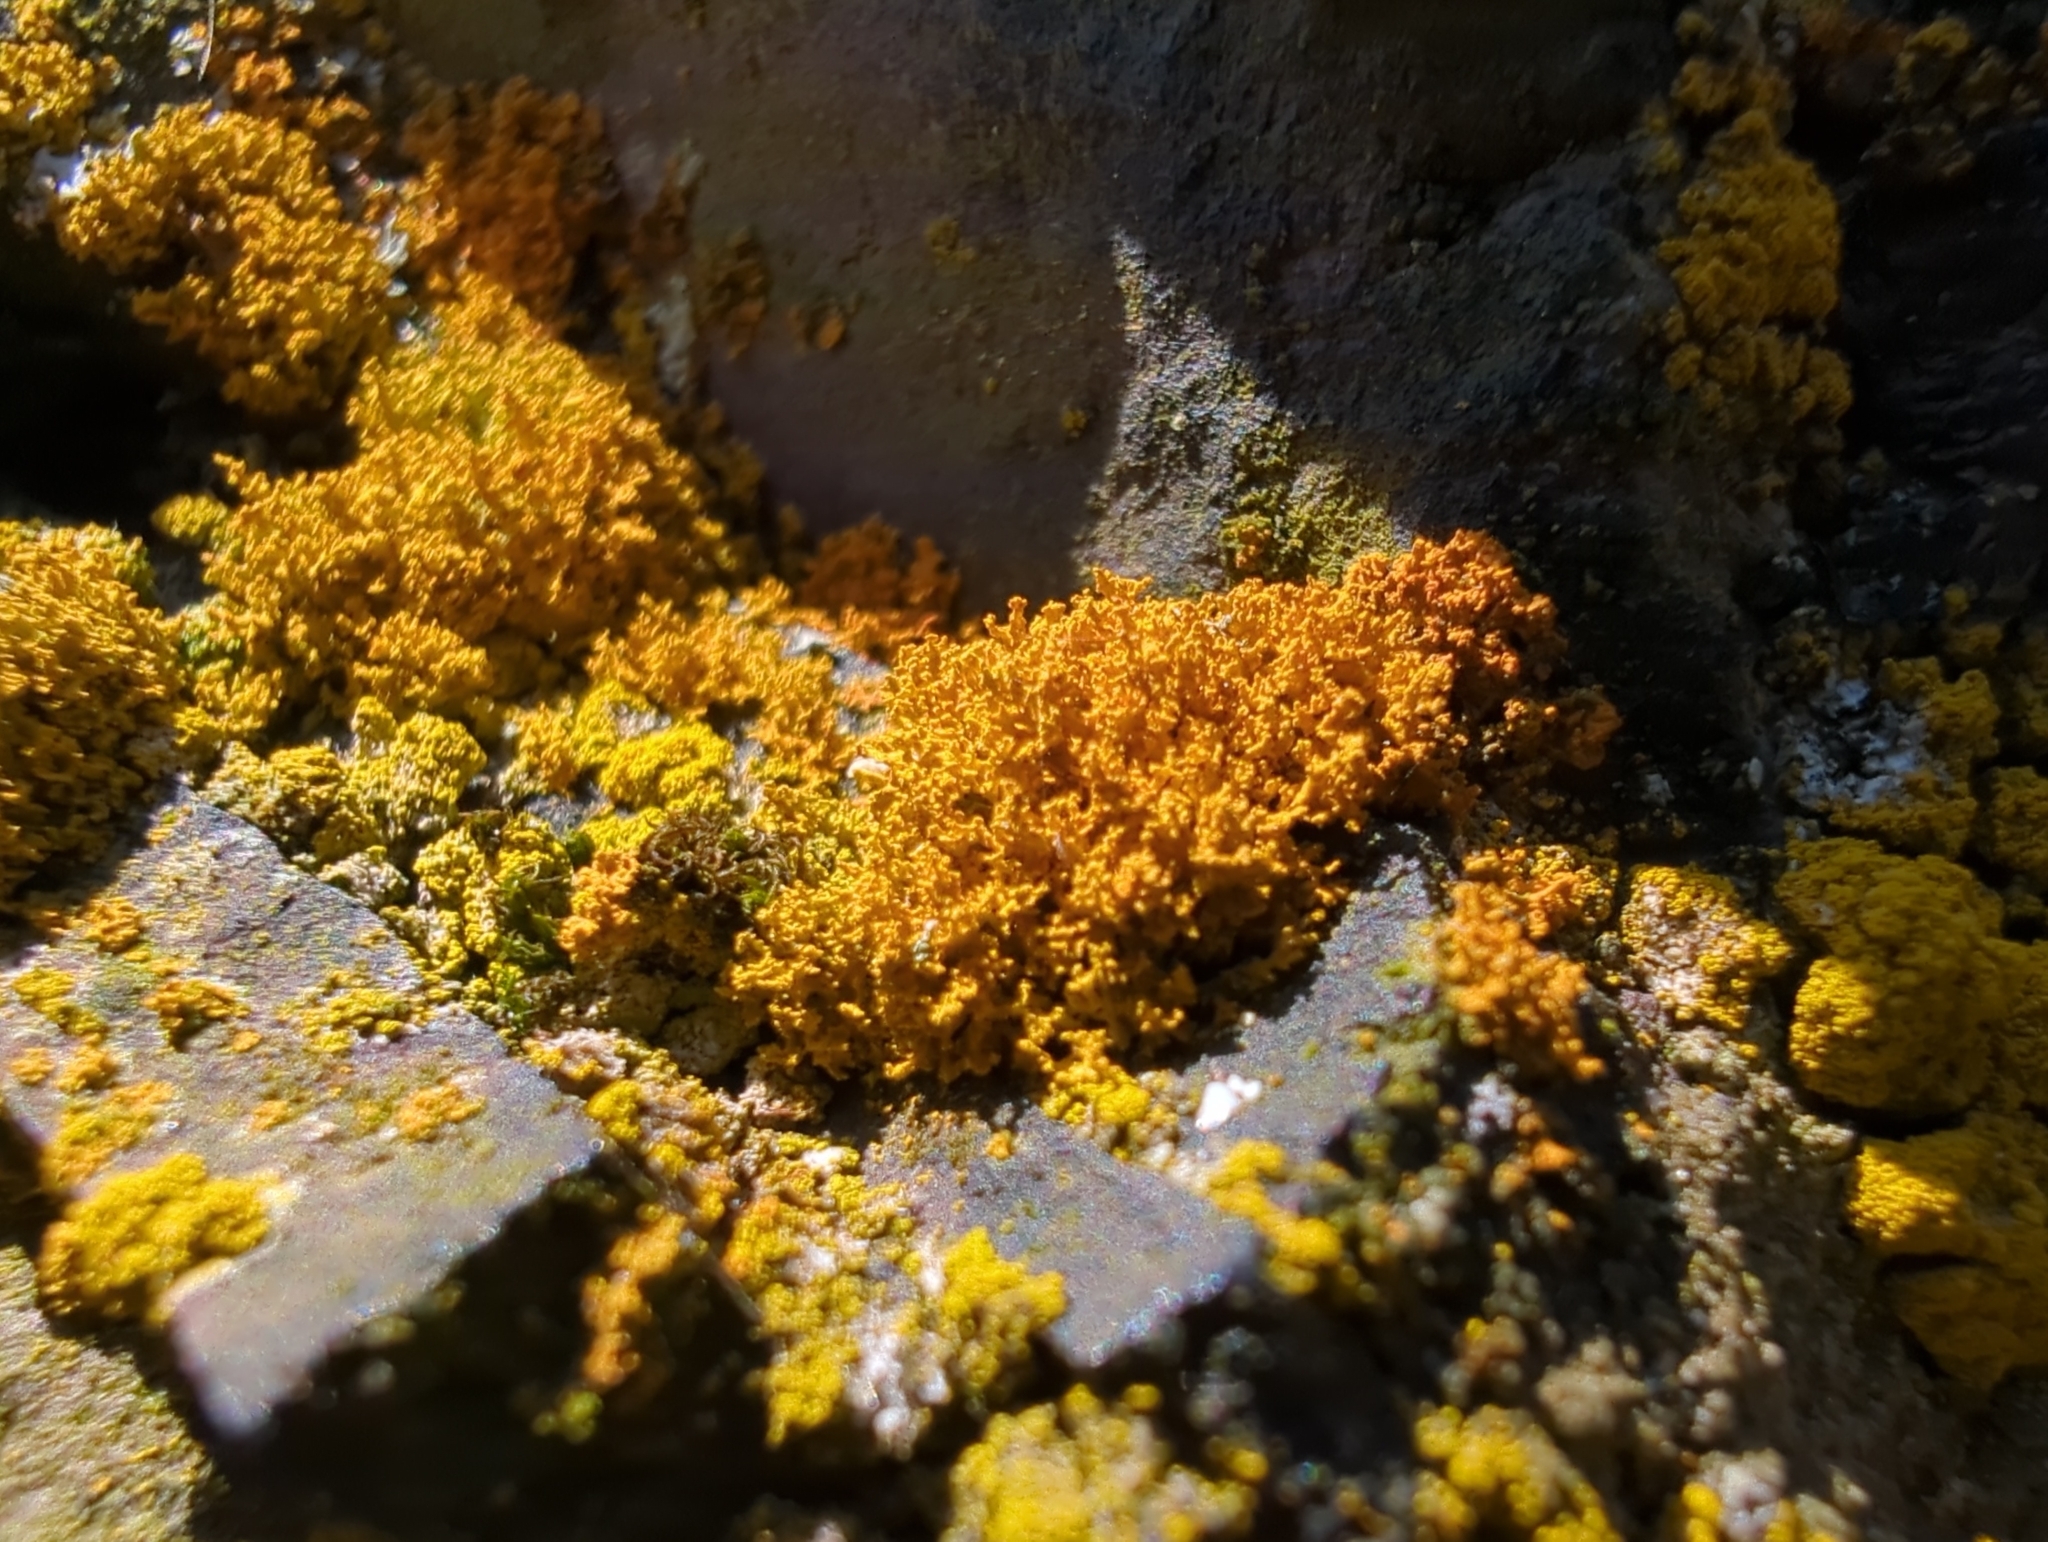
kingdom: Fungi
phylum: Ascomycota
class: Lecanoromycetes
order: Teloschistales
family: Teloschistaceae
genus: Polycauliona
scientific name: Polycauliona candelaria
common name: Shrubby sunburst lichen
